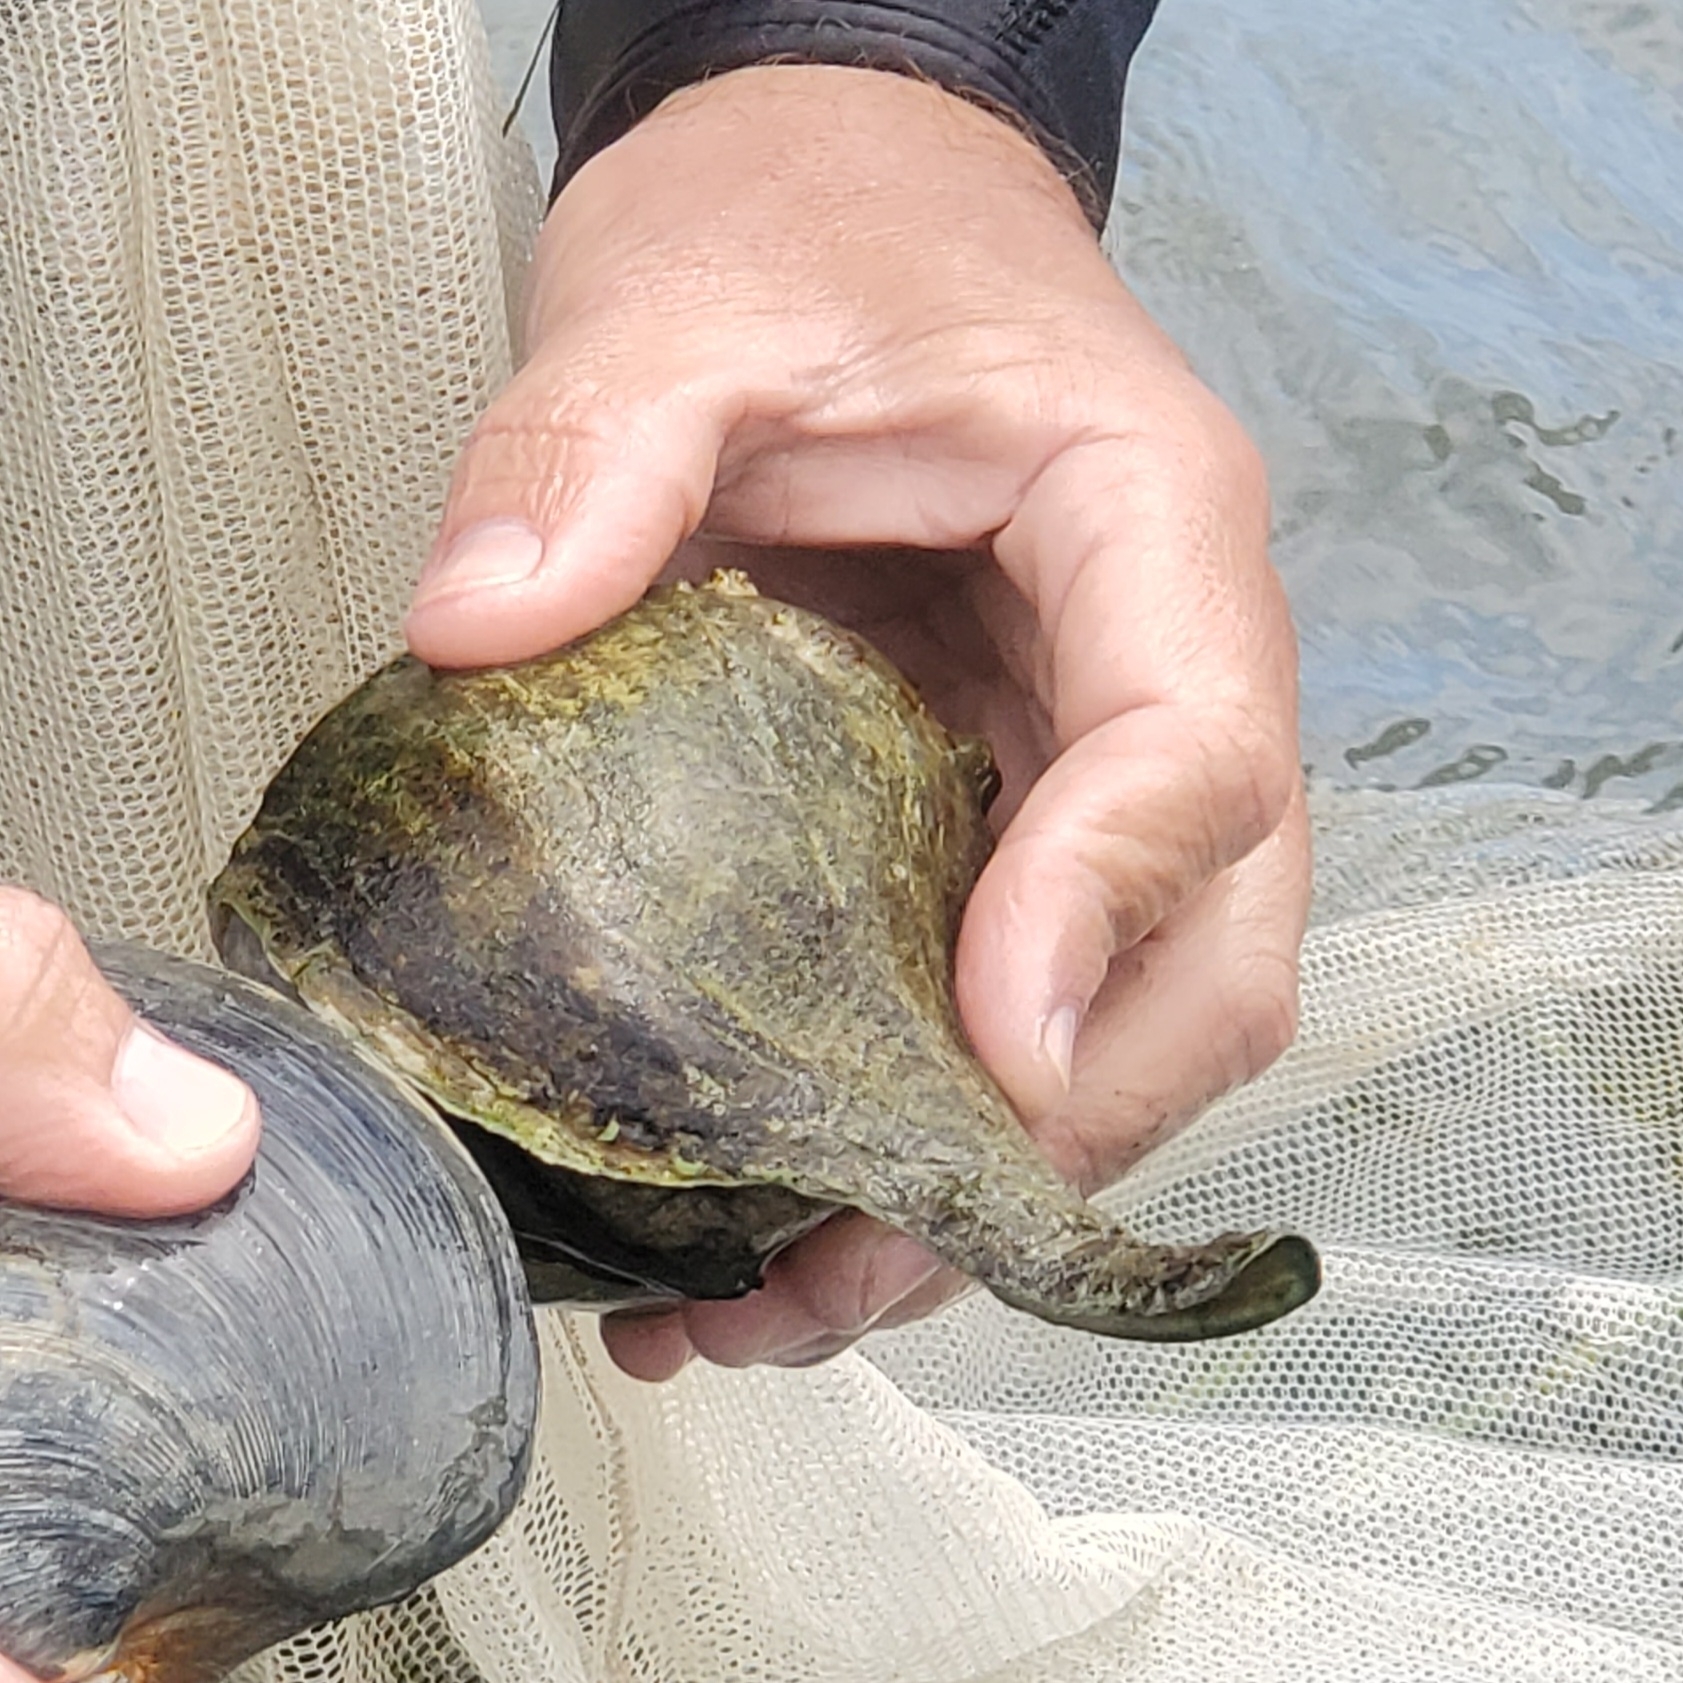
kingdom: Animalia
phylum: Mollusca
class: Gastropoda
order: Neogastropoda
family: Busyconidae
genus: Busycotypus
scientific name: Busycotypus canaliculatus
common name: Channeled whelk
